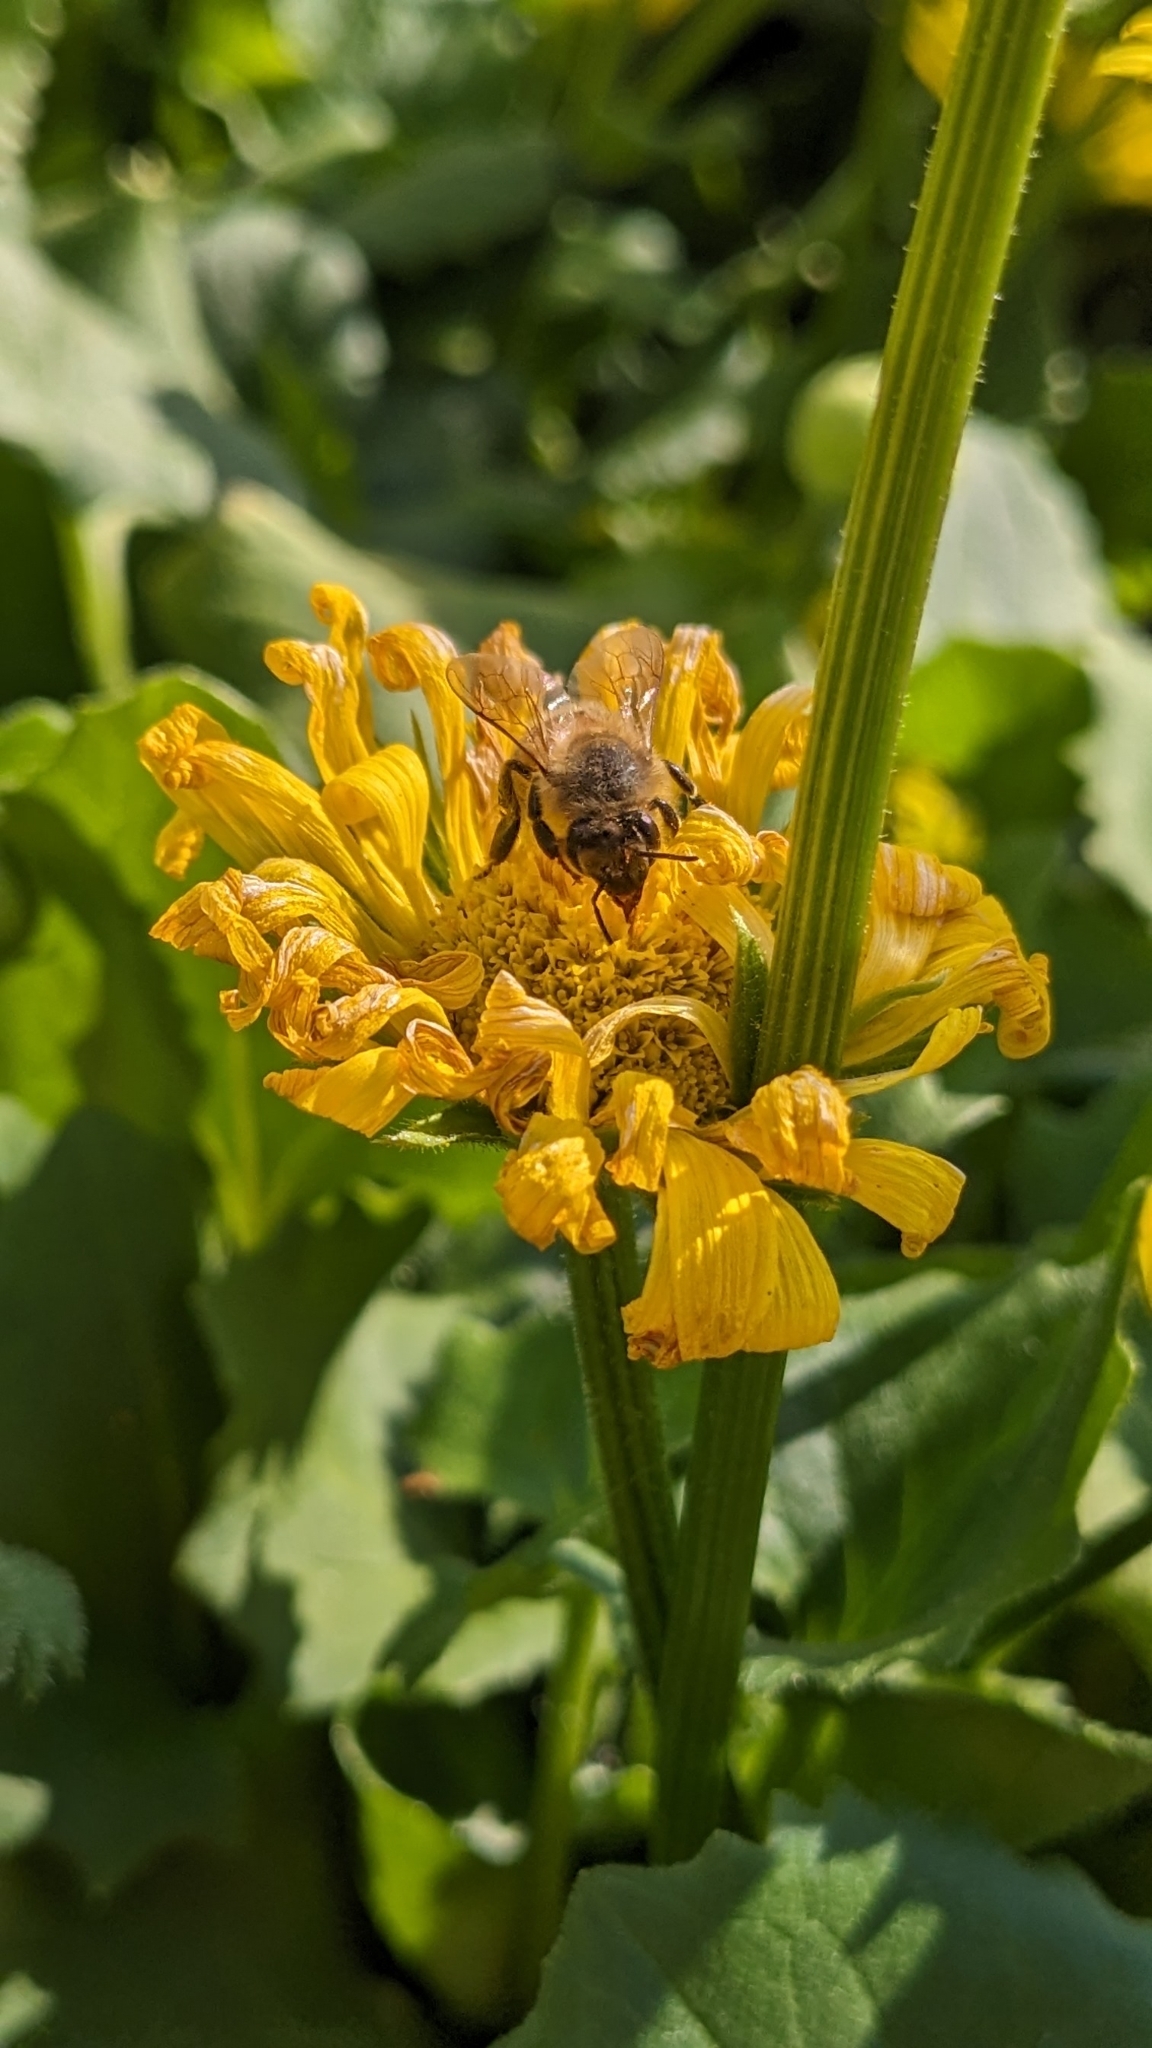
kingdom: Animalia
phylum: Arthropoda
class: Insecta
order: Hymenoptera
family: Apidae
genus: Apis
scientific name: Apis mellifera
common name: Honey bee
